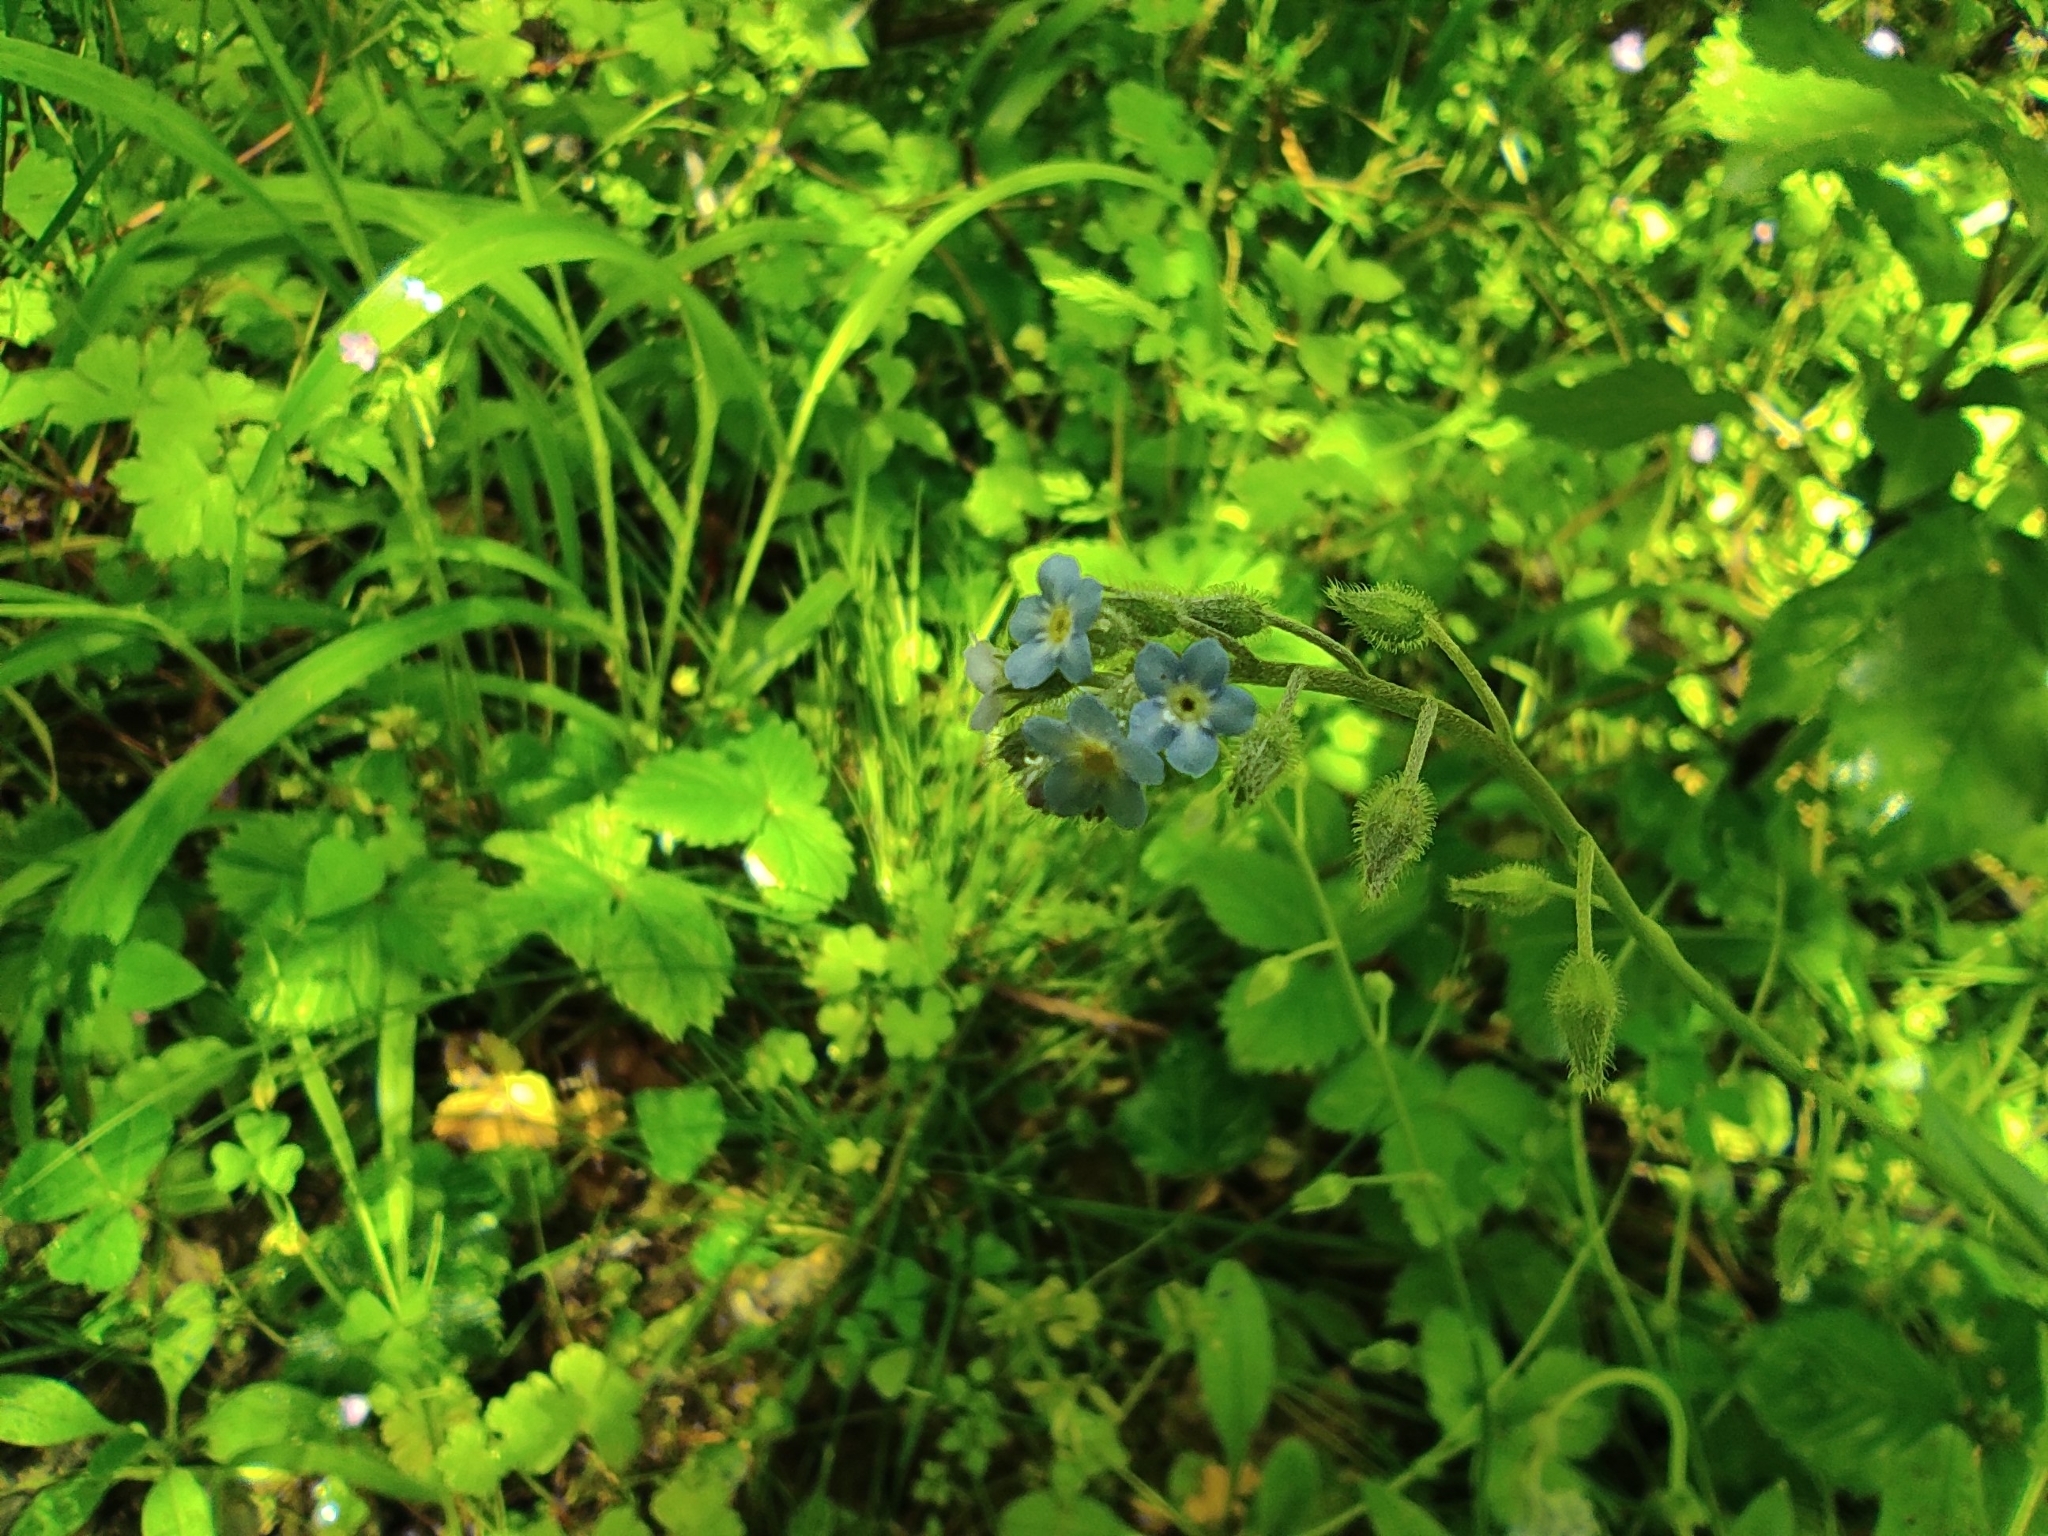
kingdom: Plantae
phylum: Tracheophyta
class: Magnoliopsida
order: Boraginales
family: Boraginaceae
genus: Myosotis
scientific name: Myosotis ramosissima
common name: Early forget-me-not
